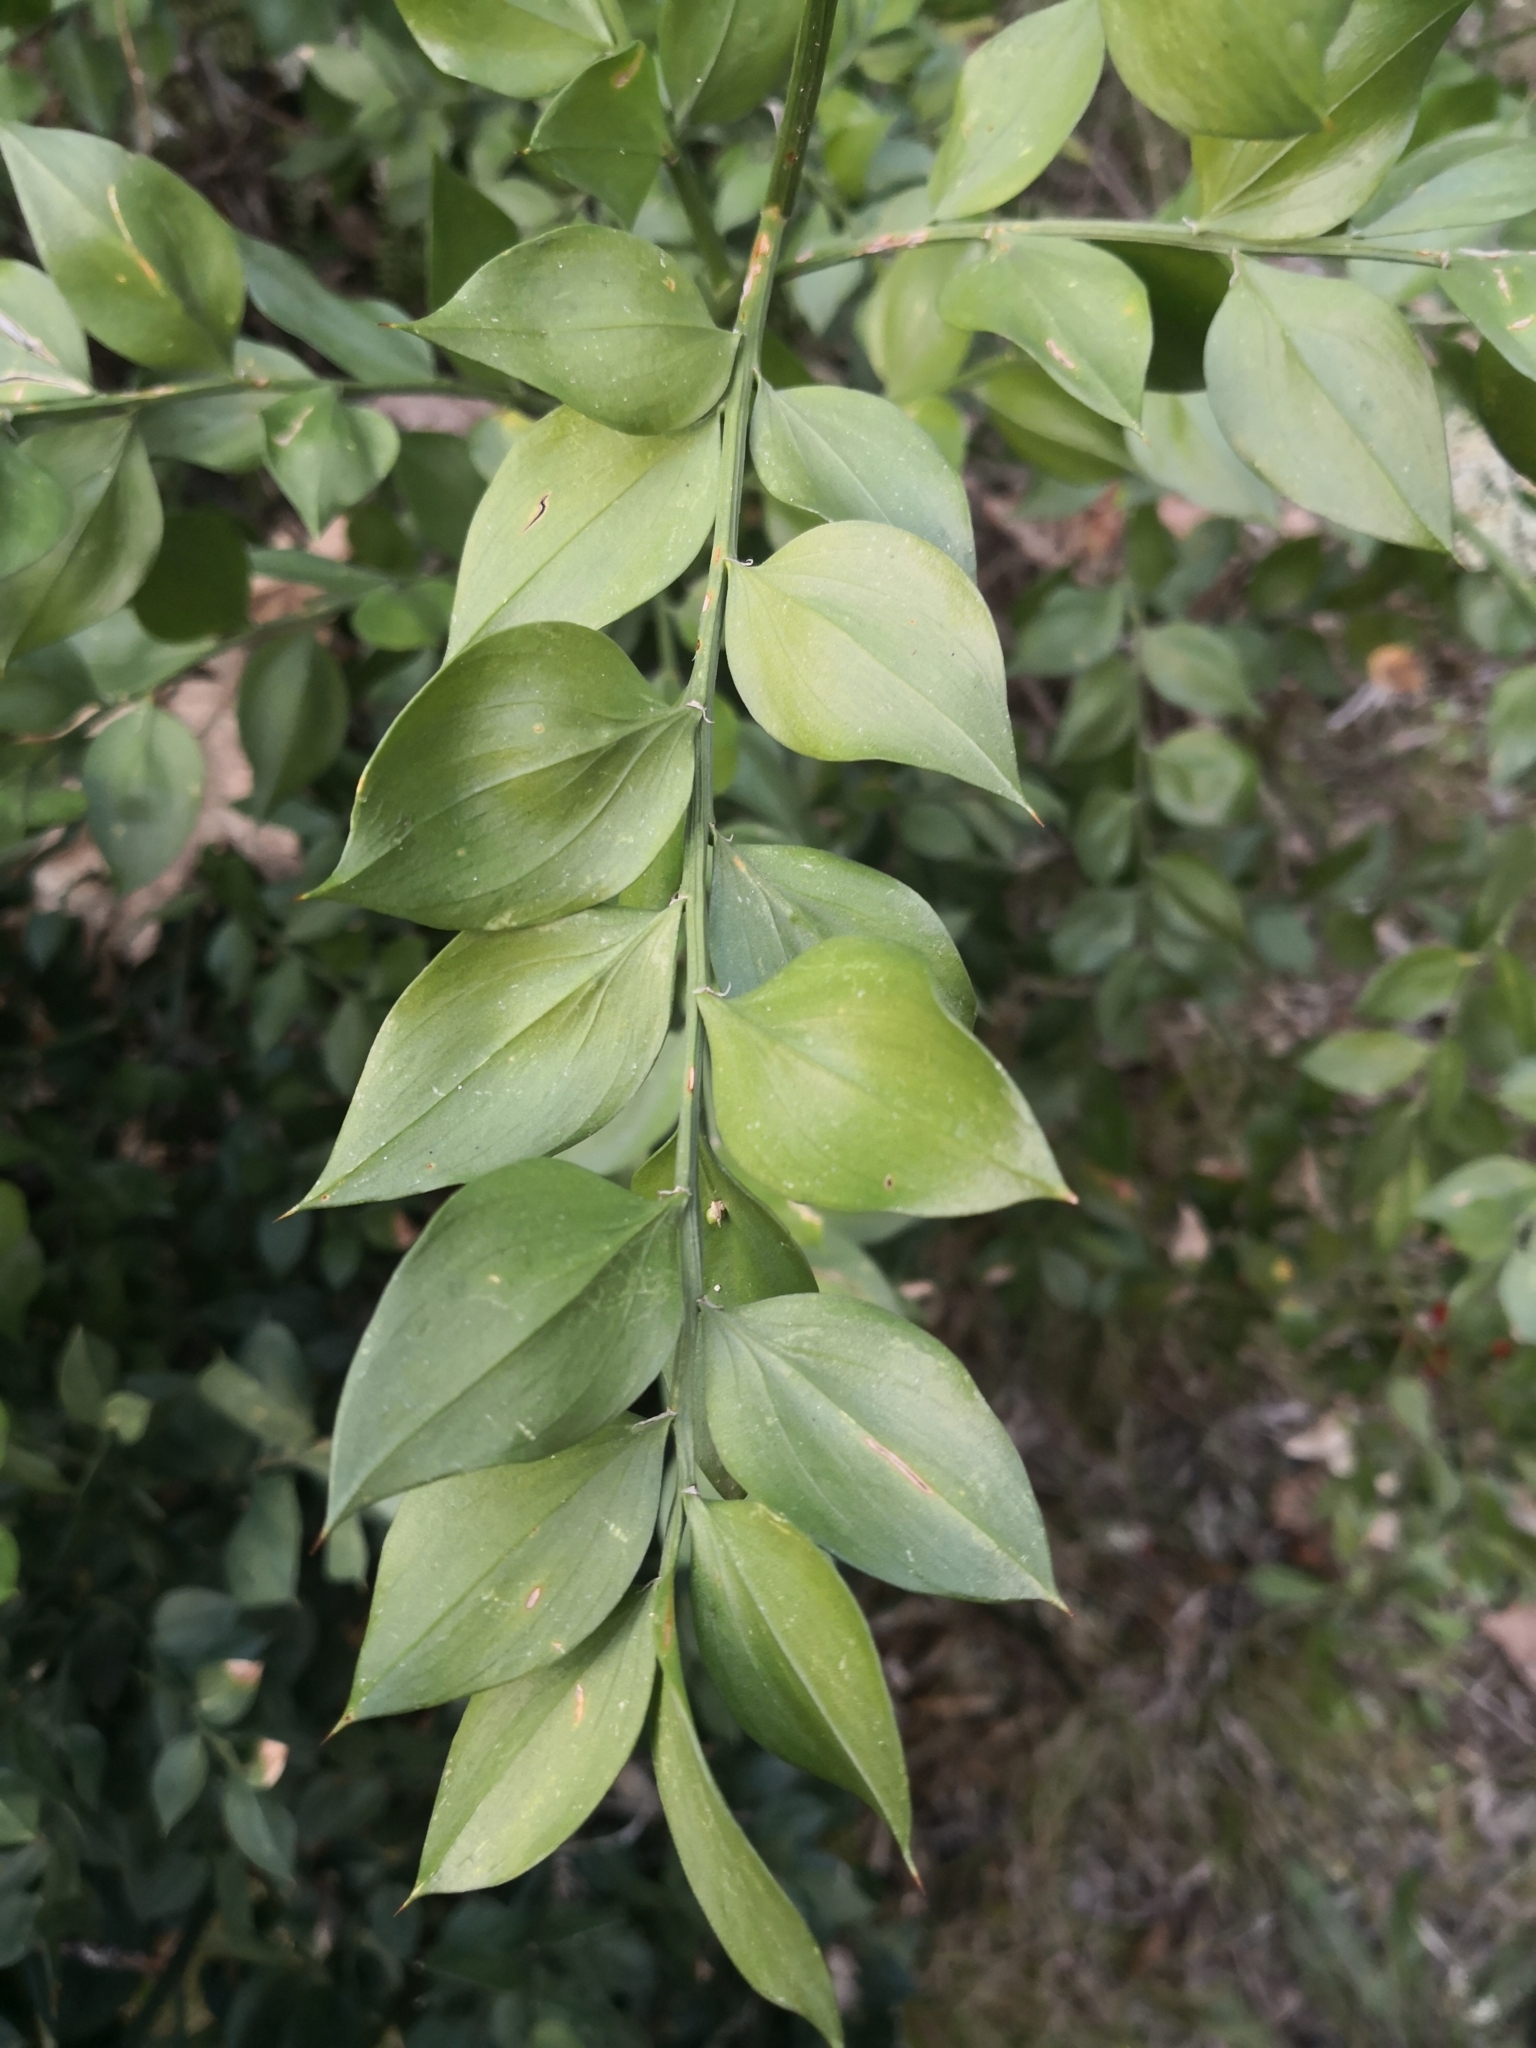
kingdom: Plantae
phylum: Tracheophyta
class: Liliopsida
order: Asparagales
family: Asparagaceae
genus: Ruscus
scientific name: Ruscus aculeatus
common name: Butcher's-broom
